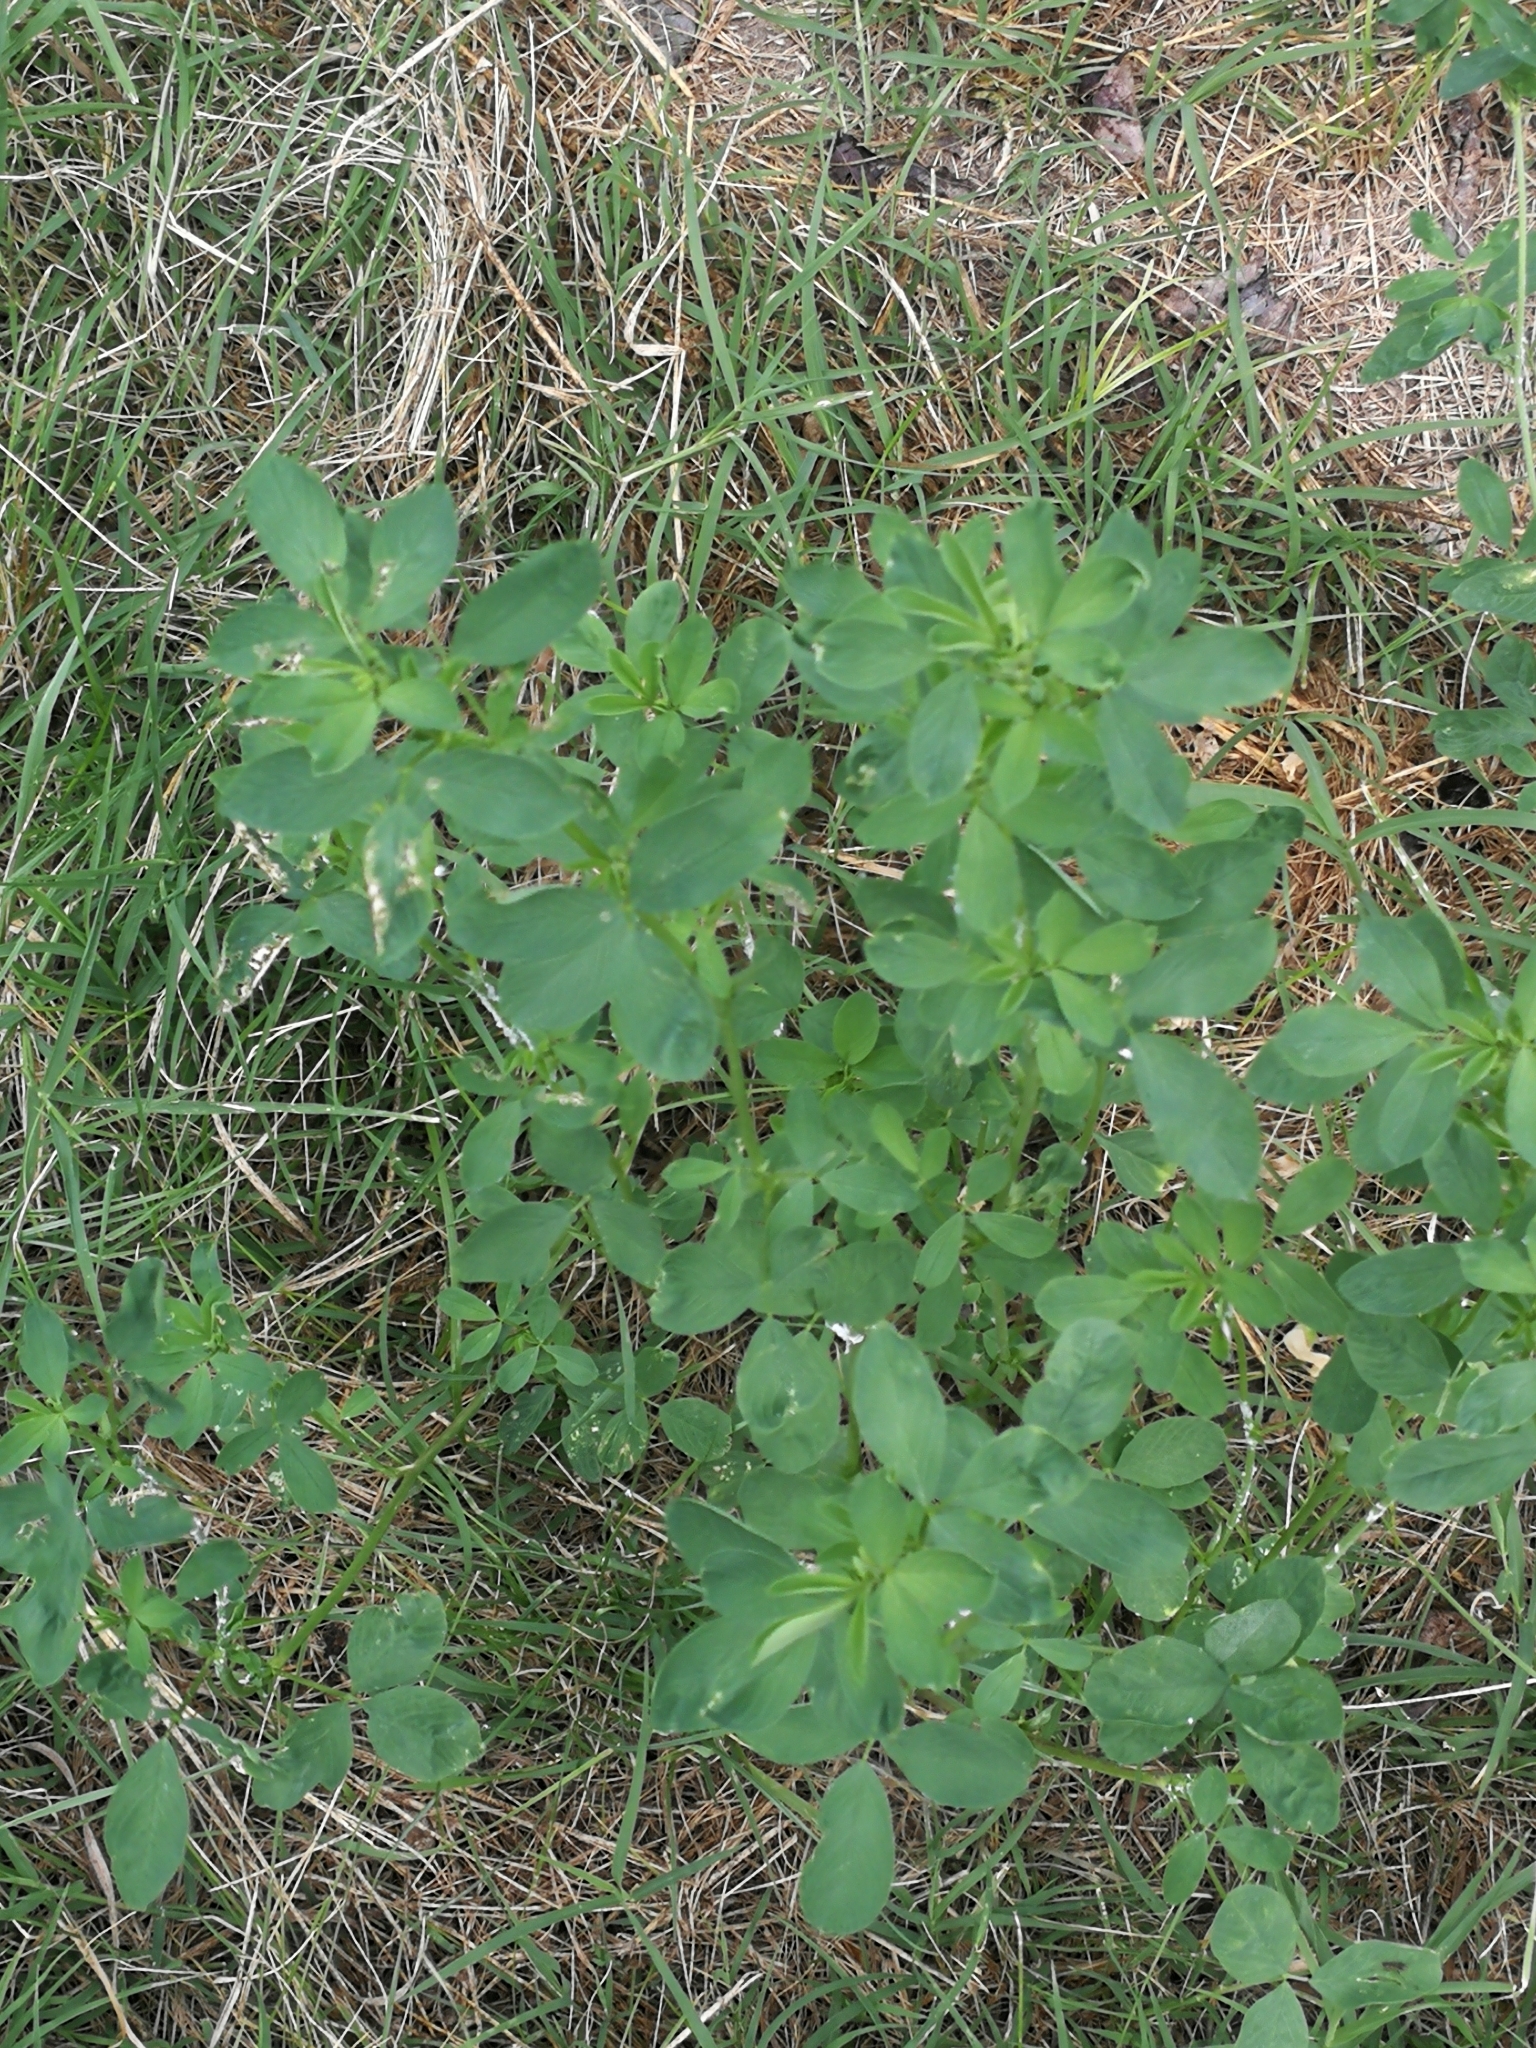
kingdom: Plantae
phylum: Tracheophyta
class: Magnoliopsida
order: Fabales
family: Fabaceae
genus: Medicago
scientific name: Medicago sativa
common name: Alfalfa
